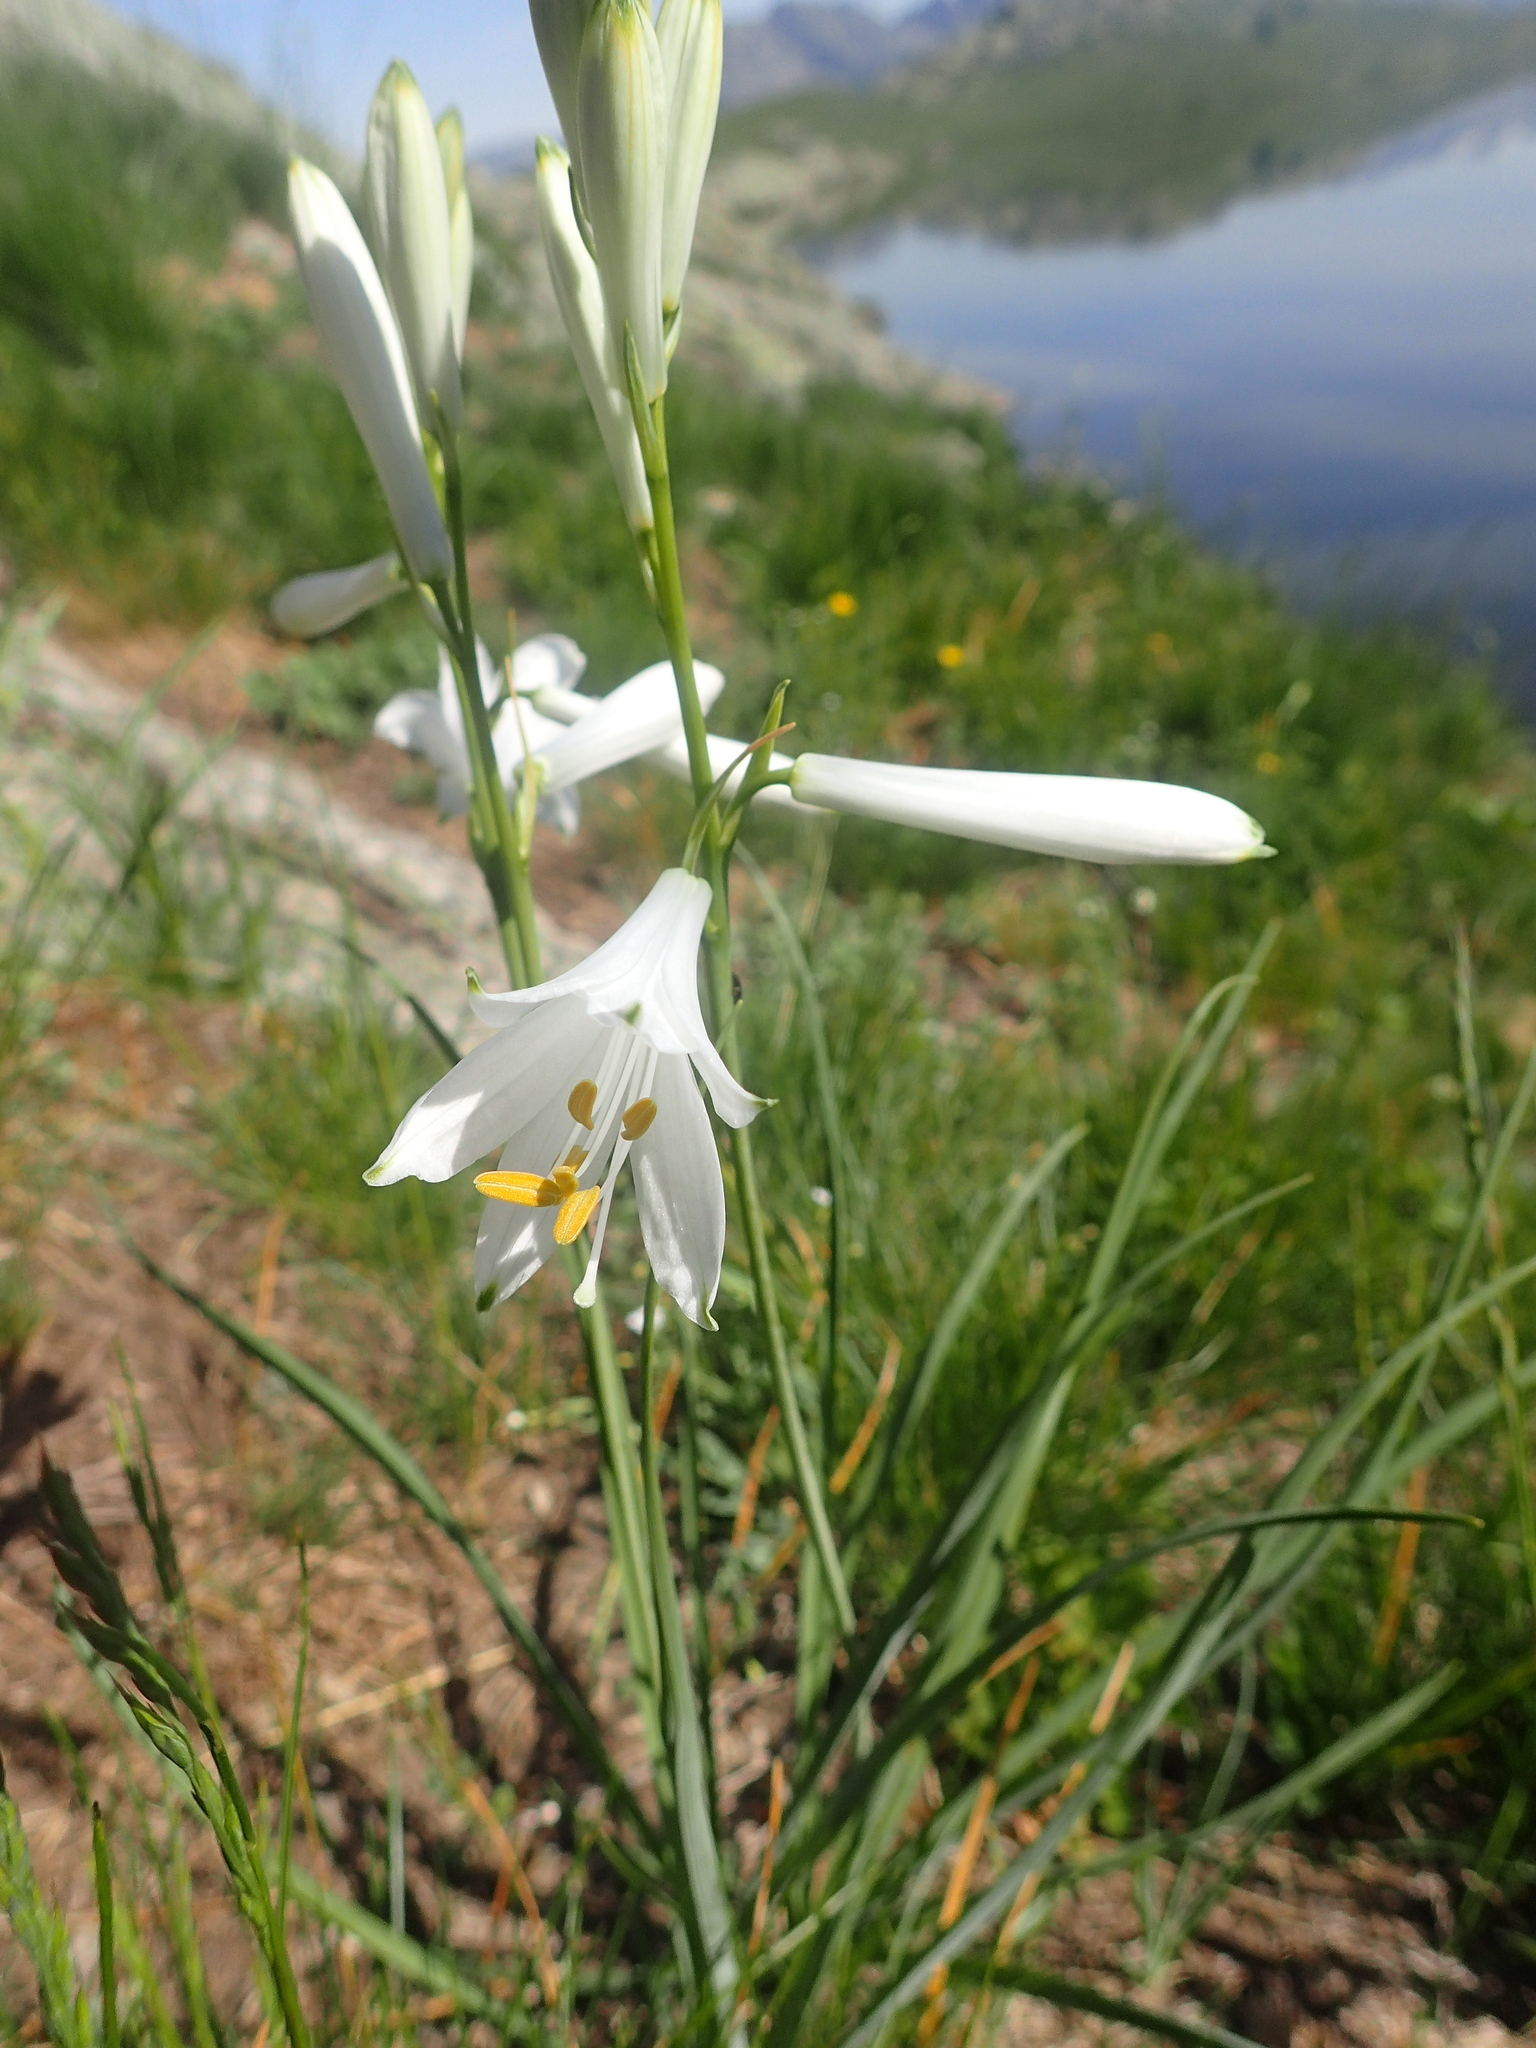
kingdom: Plantae
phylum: Tracheophyta
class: Liliopsida
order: Asparagales
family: Asparagaceae
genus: Paradisea
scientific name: Paradisea liliastrum
